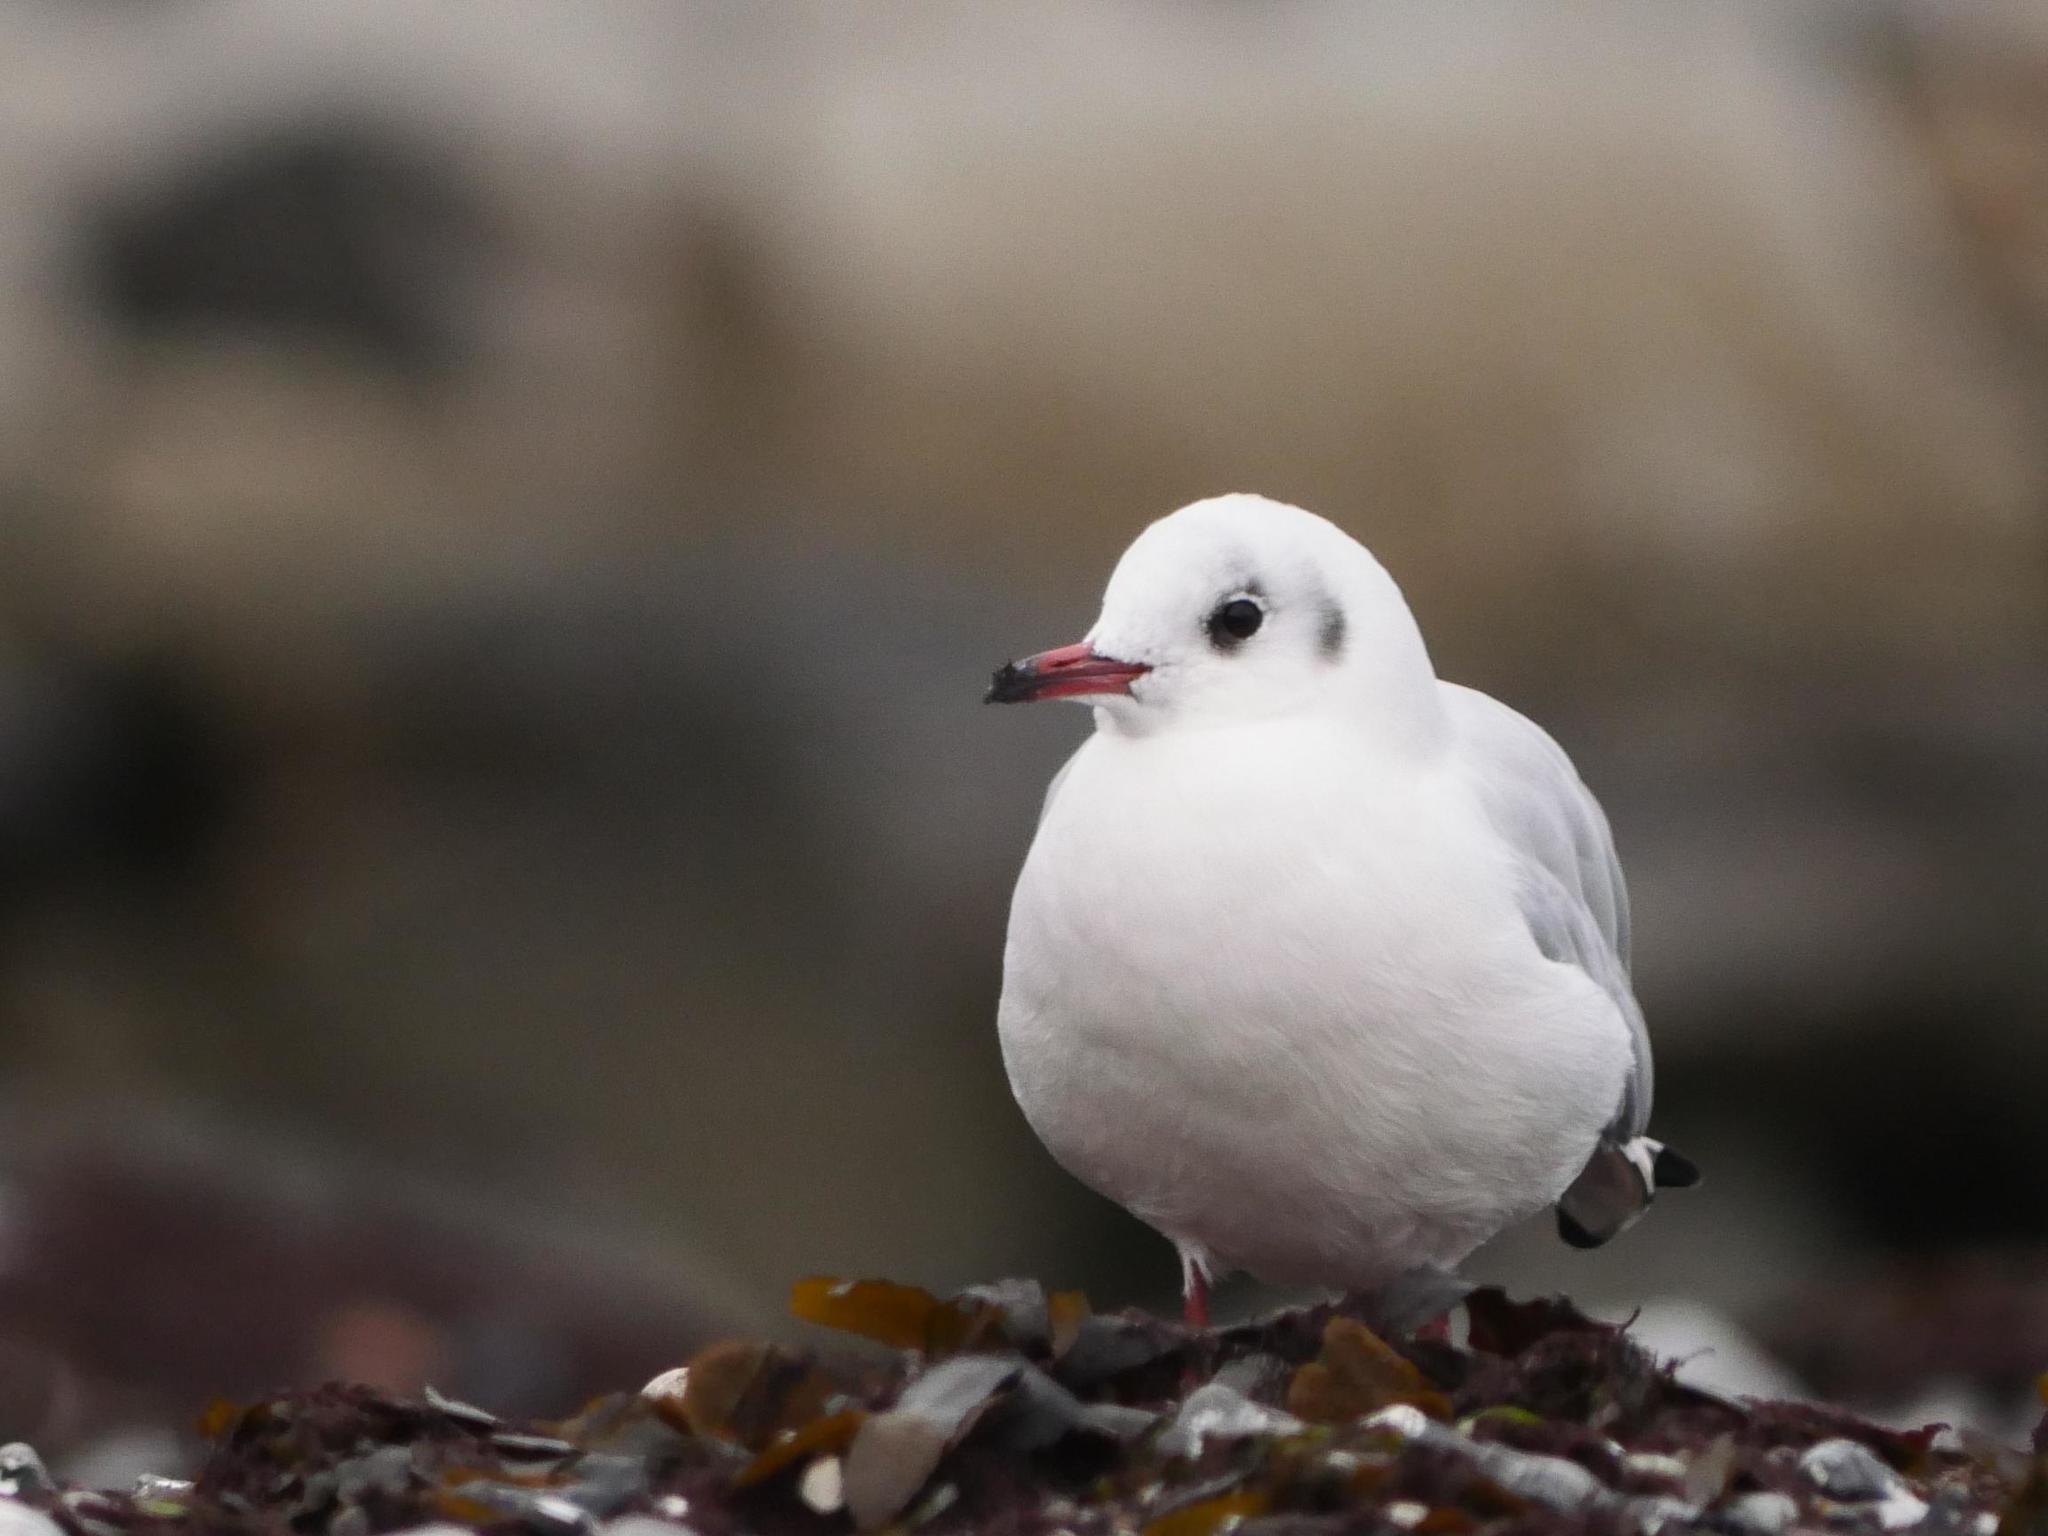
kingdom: Animalia
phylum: Chordata
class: Aves
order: Charadriiformes
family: Laridae
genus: Chroicocephalus
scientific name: Chroicocephalus ridibundus
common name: Black-headed gull
